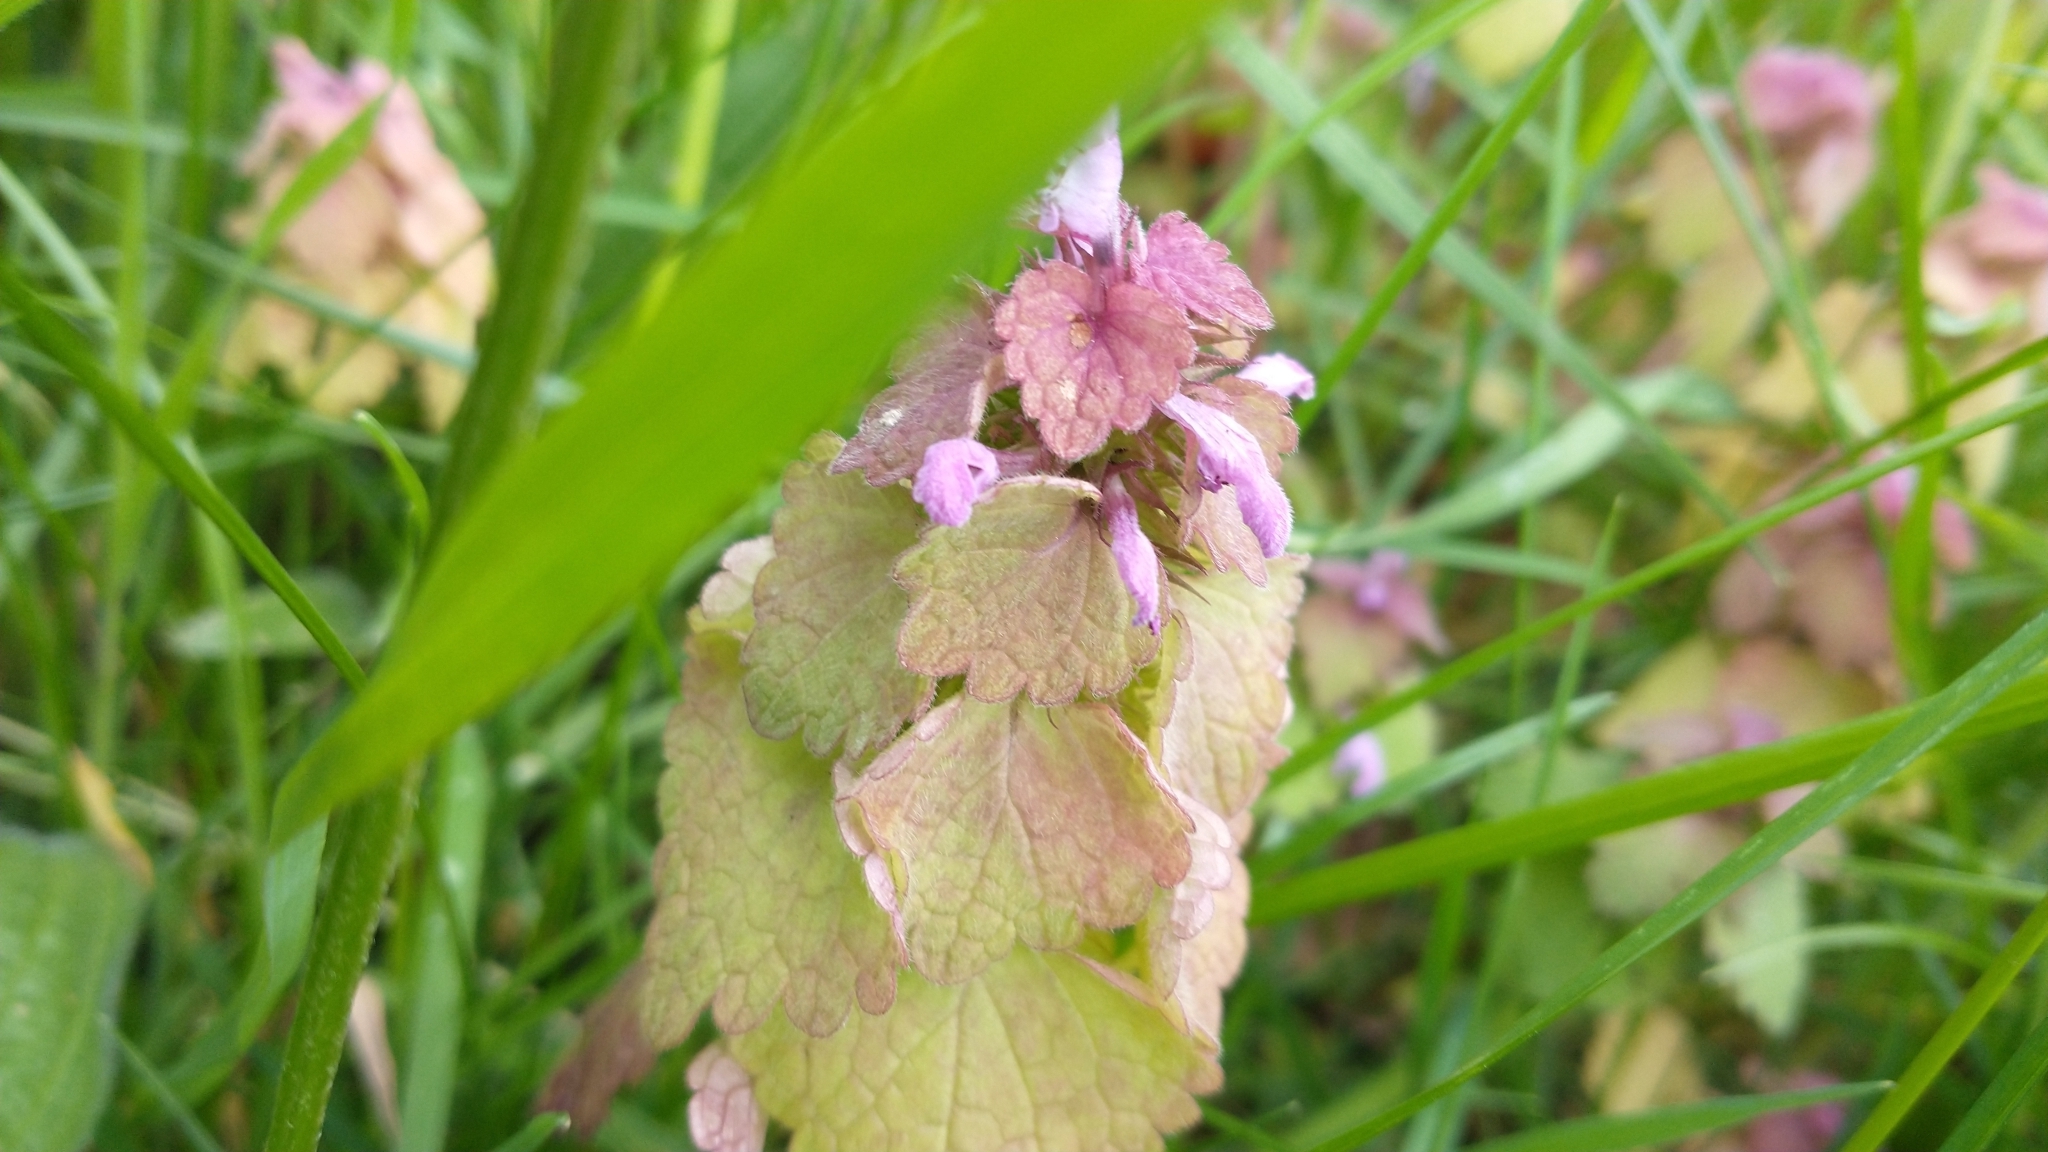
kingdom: Plantae
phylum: Tracheophyta
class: Magnoliopsida
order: Lamiales
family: Lamiaceae
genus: Lamium
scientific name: Lamium purpureum
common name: Red dead-nettle
